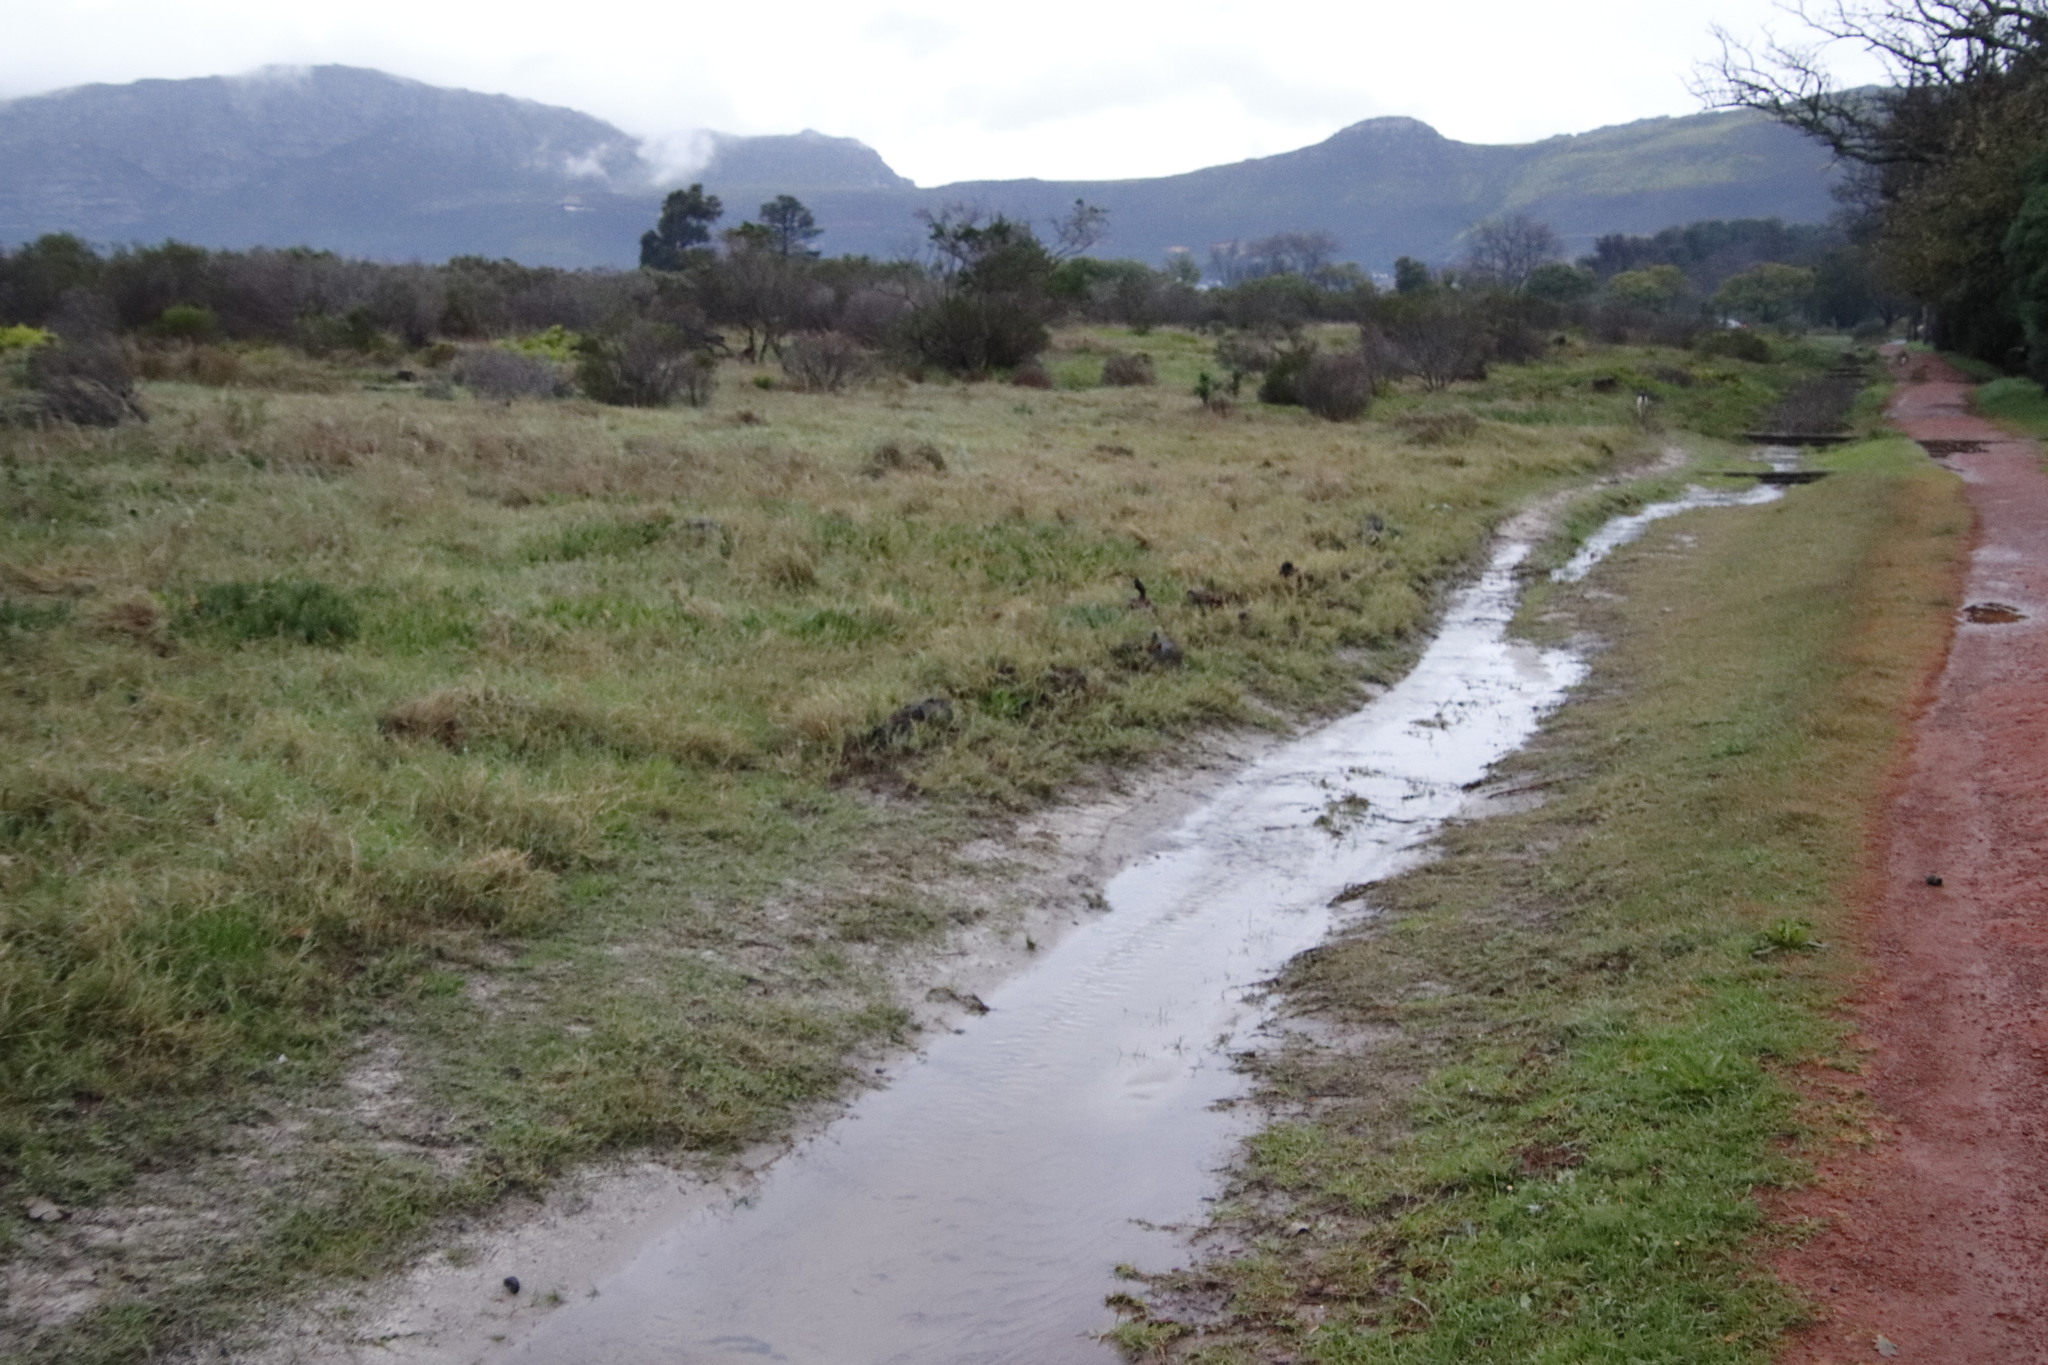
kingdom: Plantae
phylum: Tracheophyta
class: Liliopsida
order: Poales
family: Poaceae
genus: Stenotaphrum
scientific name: Stenotaphrum secundatum
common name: St. augustine grass
